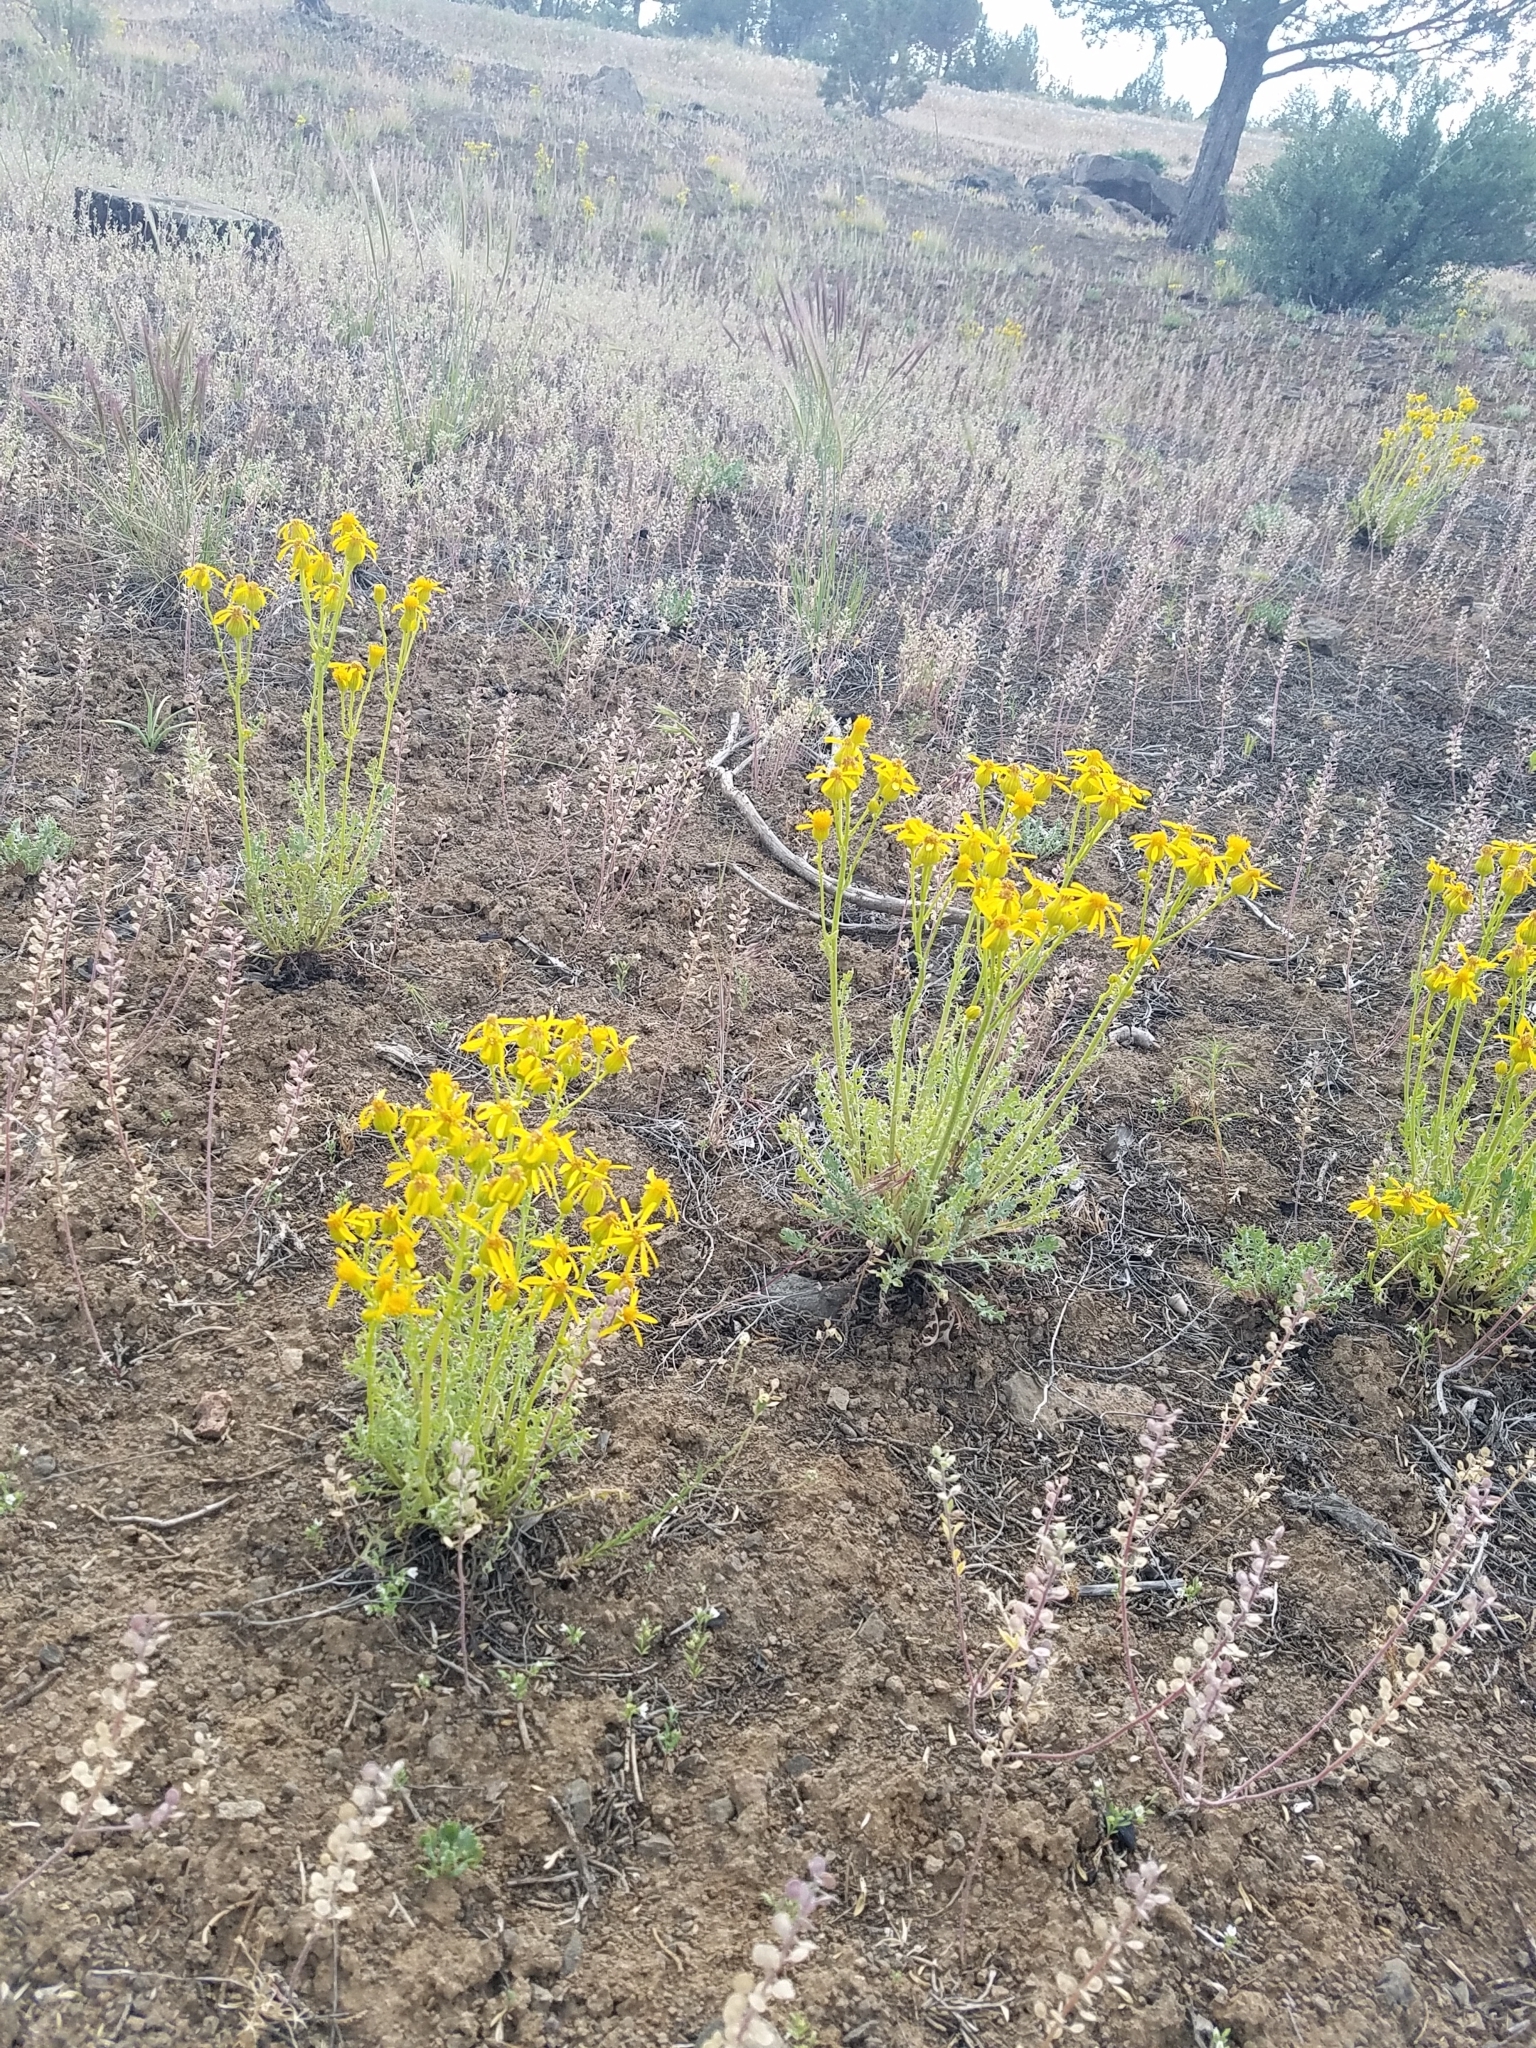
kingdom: Plantae
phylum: Tracheophyta
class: Magnoliopsida
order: Asterales
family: Asteraceae
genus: Packera
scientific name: Packera multilobata
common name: Lobe-leaf groundsel
